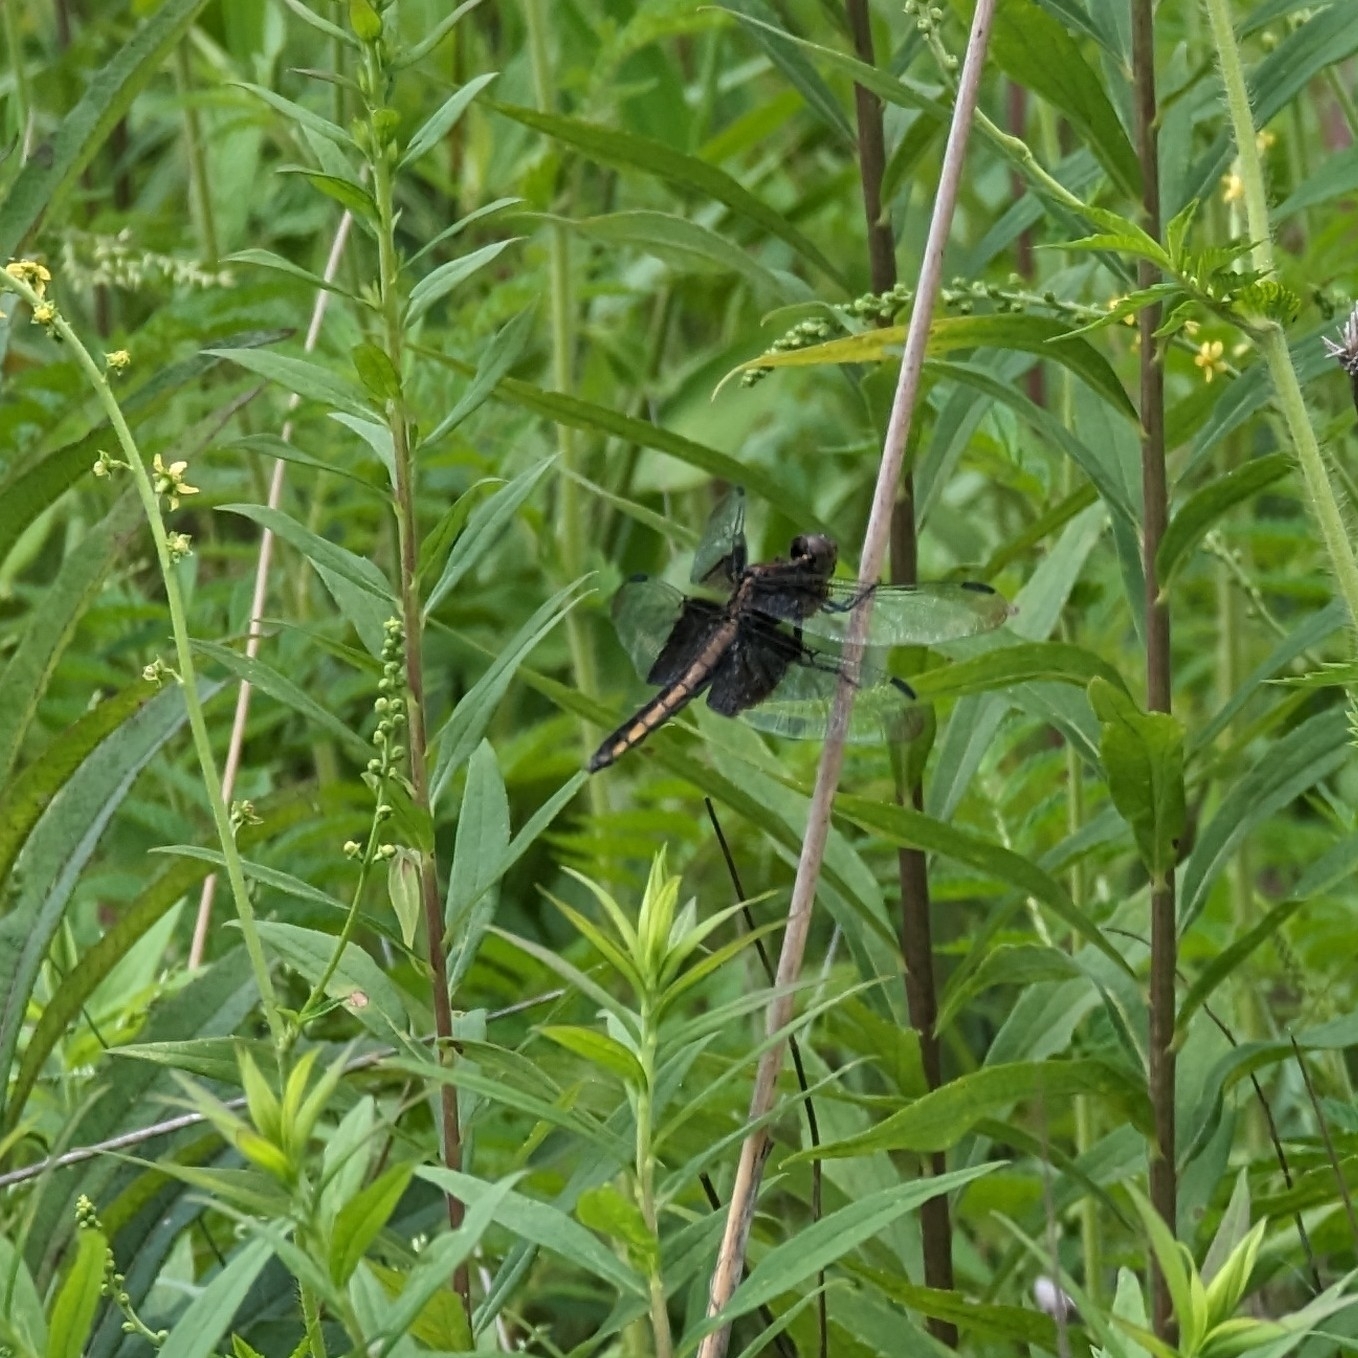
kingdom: Animalia
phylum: Arthropoda
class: Insecta
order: Odonata
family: Libellulidae
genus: Libellula
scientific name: Libellula luctuosa
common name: Widow skimmer
